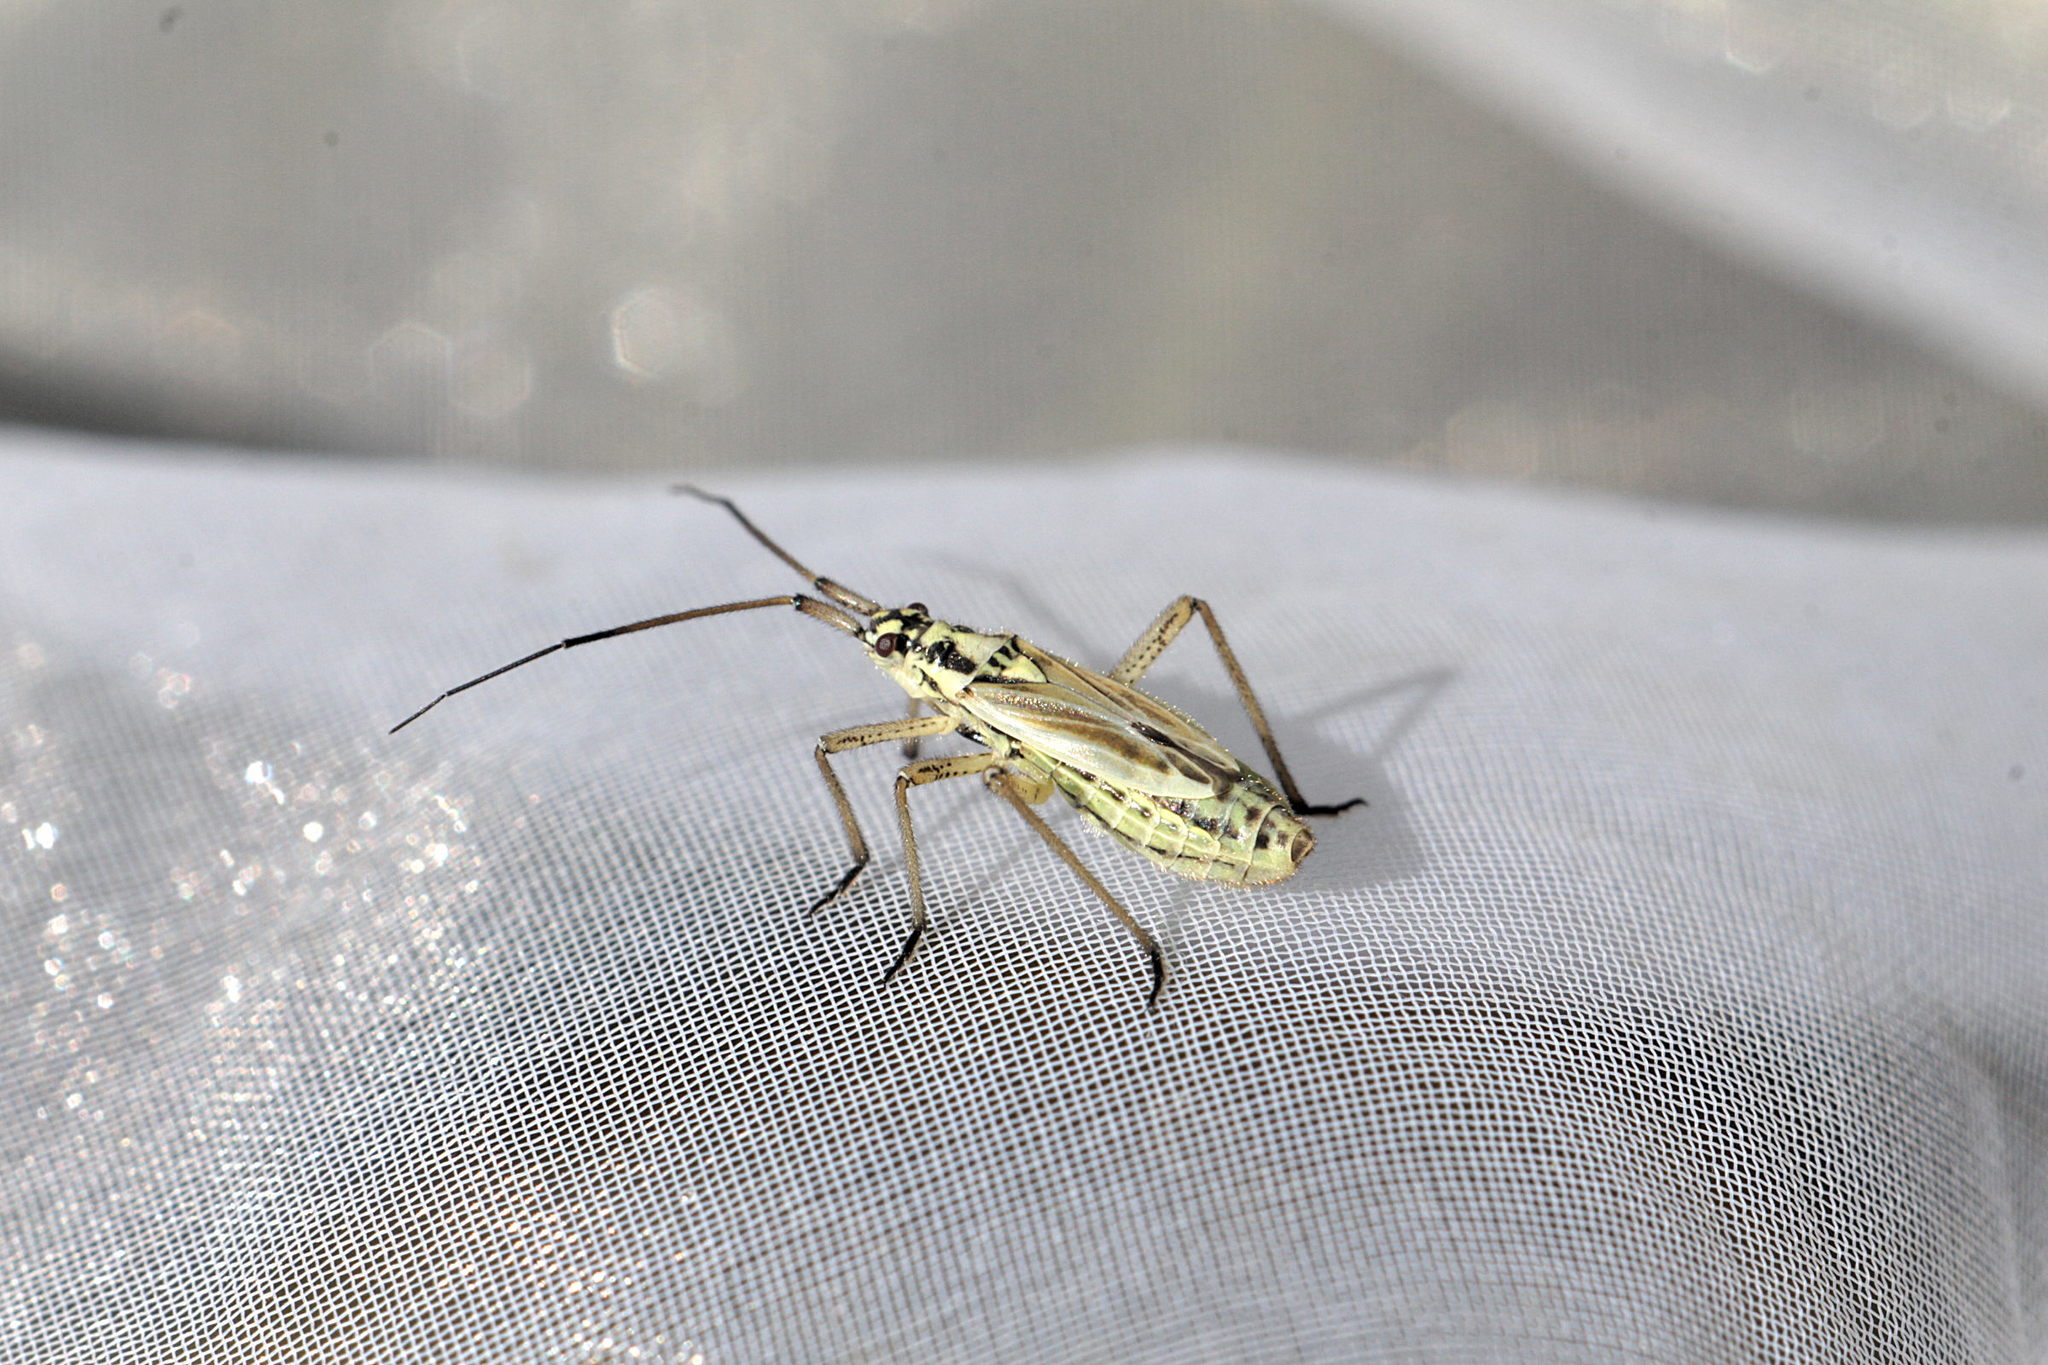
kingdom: Animalia
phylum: Arthropoda
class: Insecta
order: Hemiptera
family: Miridae
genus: Leptopterna
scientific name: Leptopterna dolabrata
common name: Meadow plant bug
